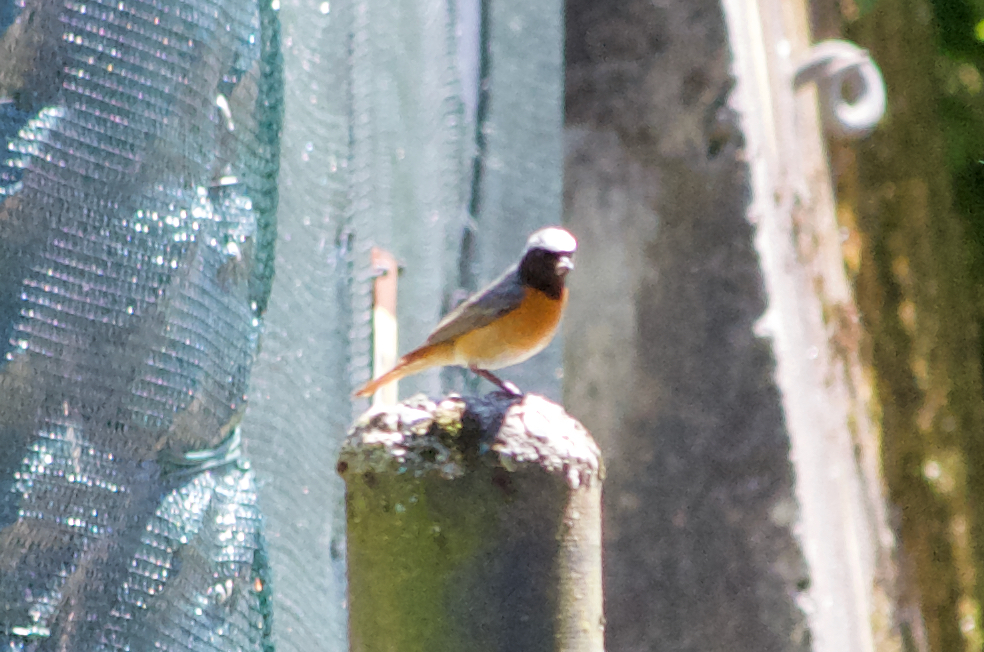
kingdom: Animalia
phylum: Chordata
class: Aves
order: Passeriformes
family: Muscicapidae
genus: Phoenicurus
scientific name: Phoenicurus phoenicurus
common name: Common redstart
